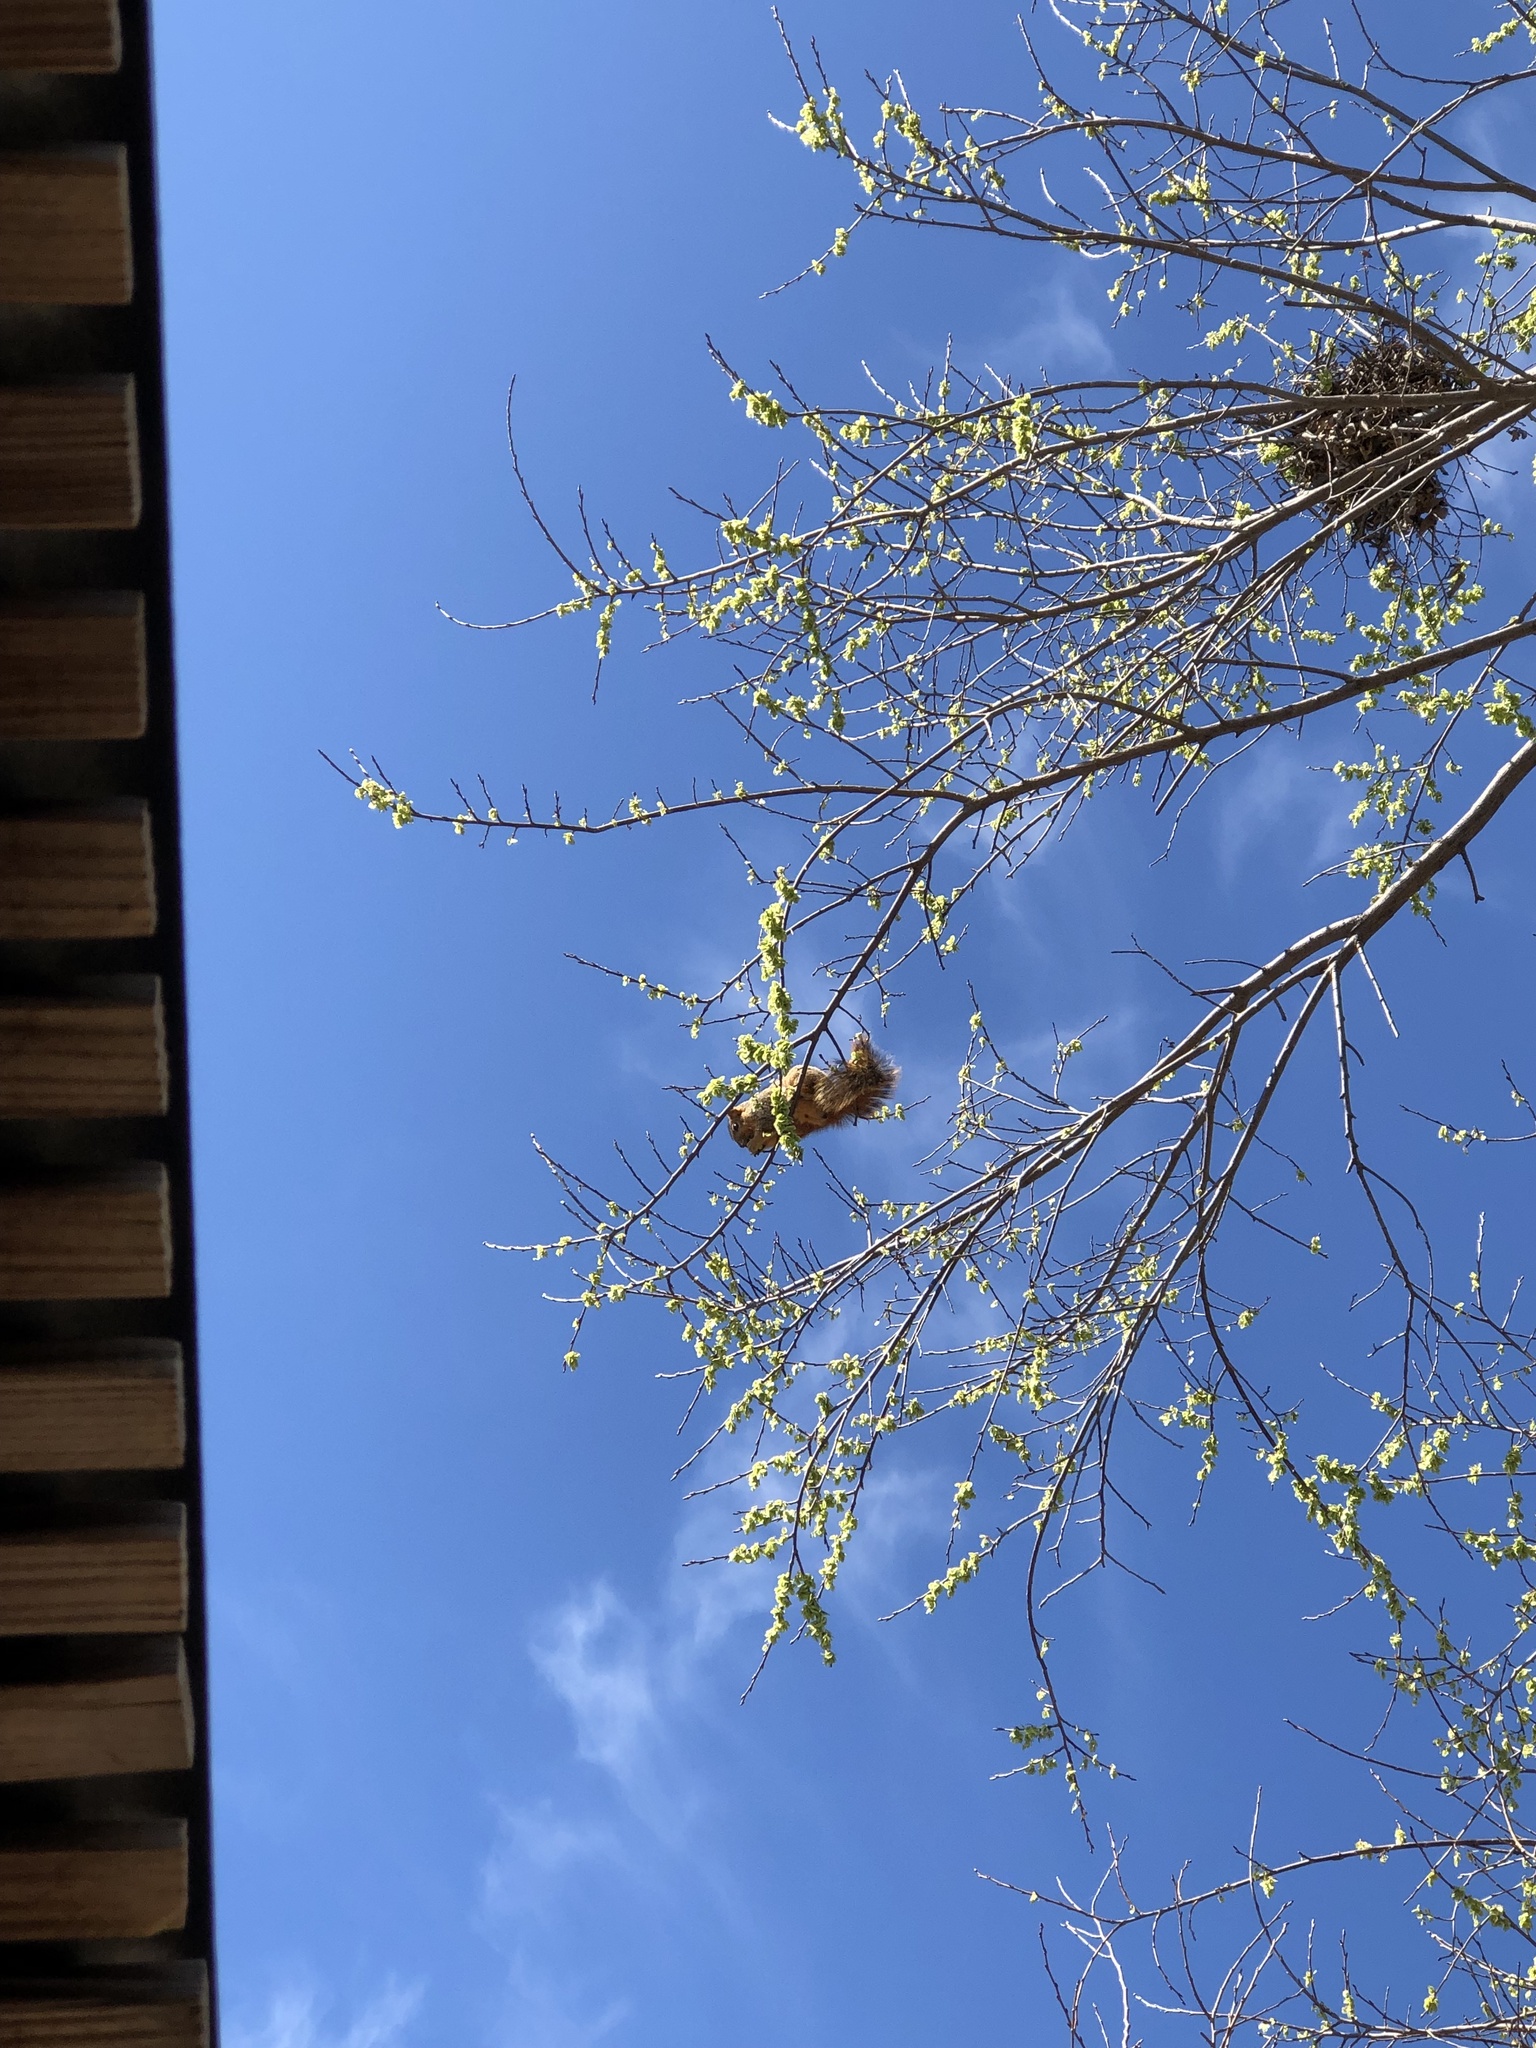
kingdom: Animalia
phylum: Chordata
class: Mammalia
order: Rodentia
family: Sciuridae
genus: Sciurus
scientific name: Sciurus niger
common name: Fox squirrel
